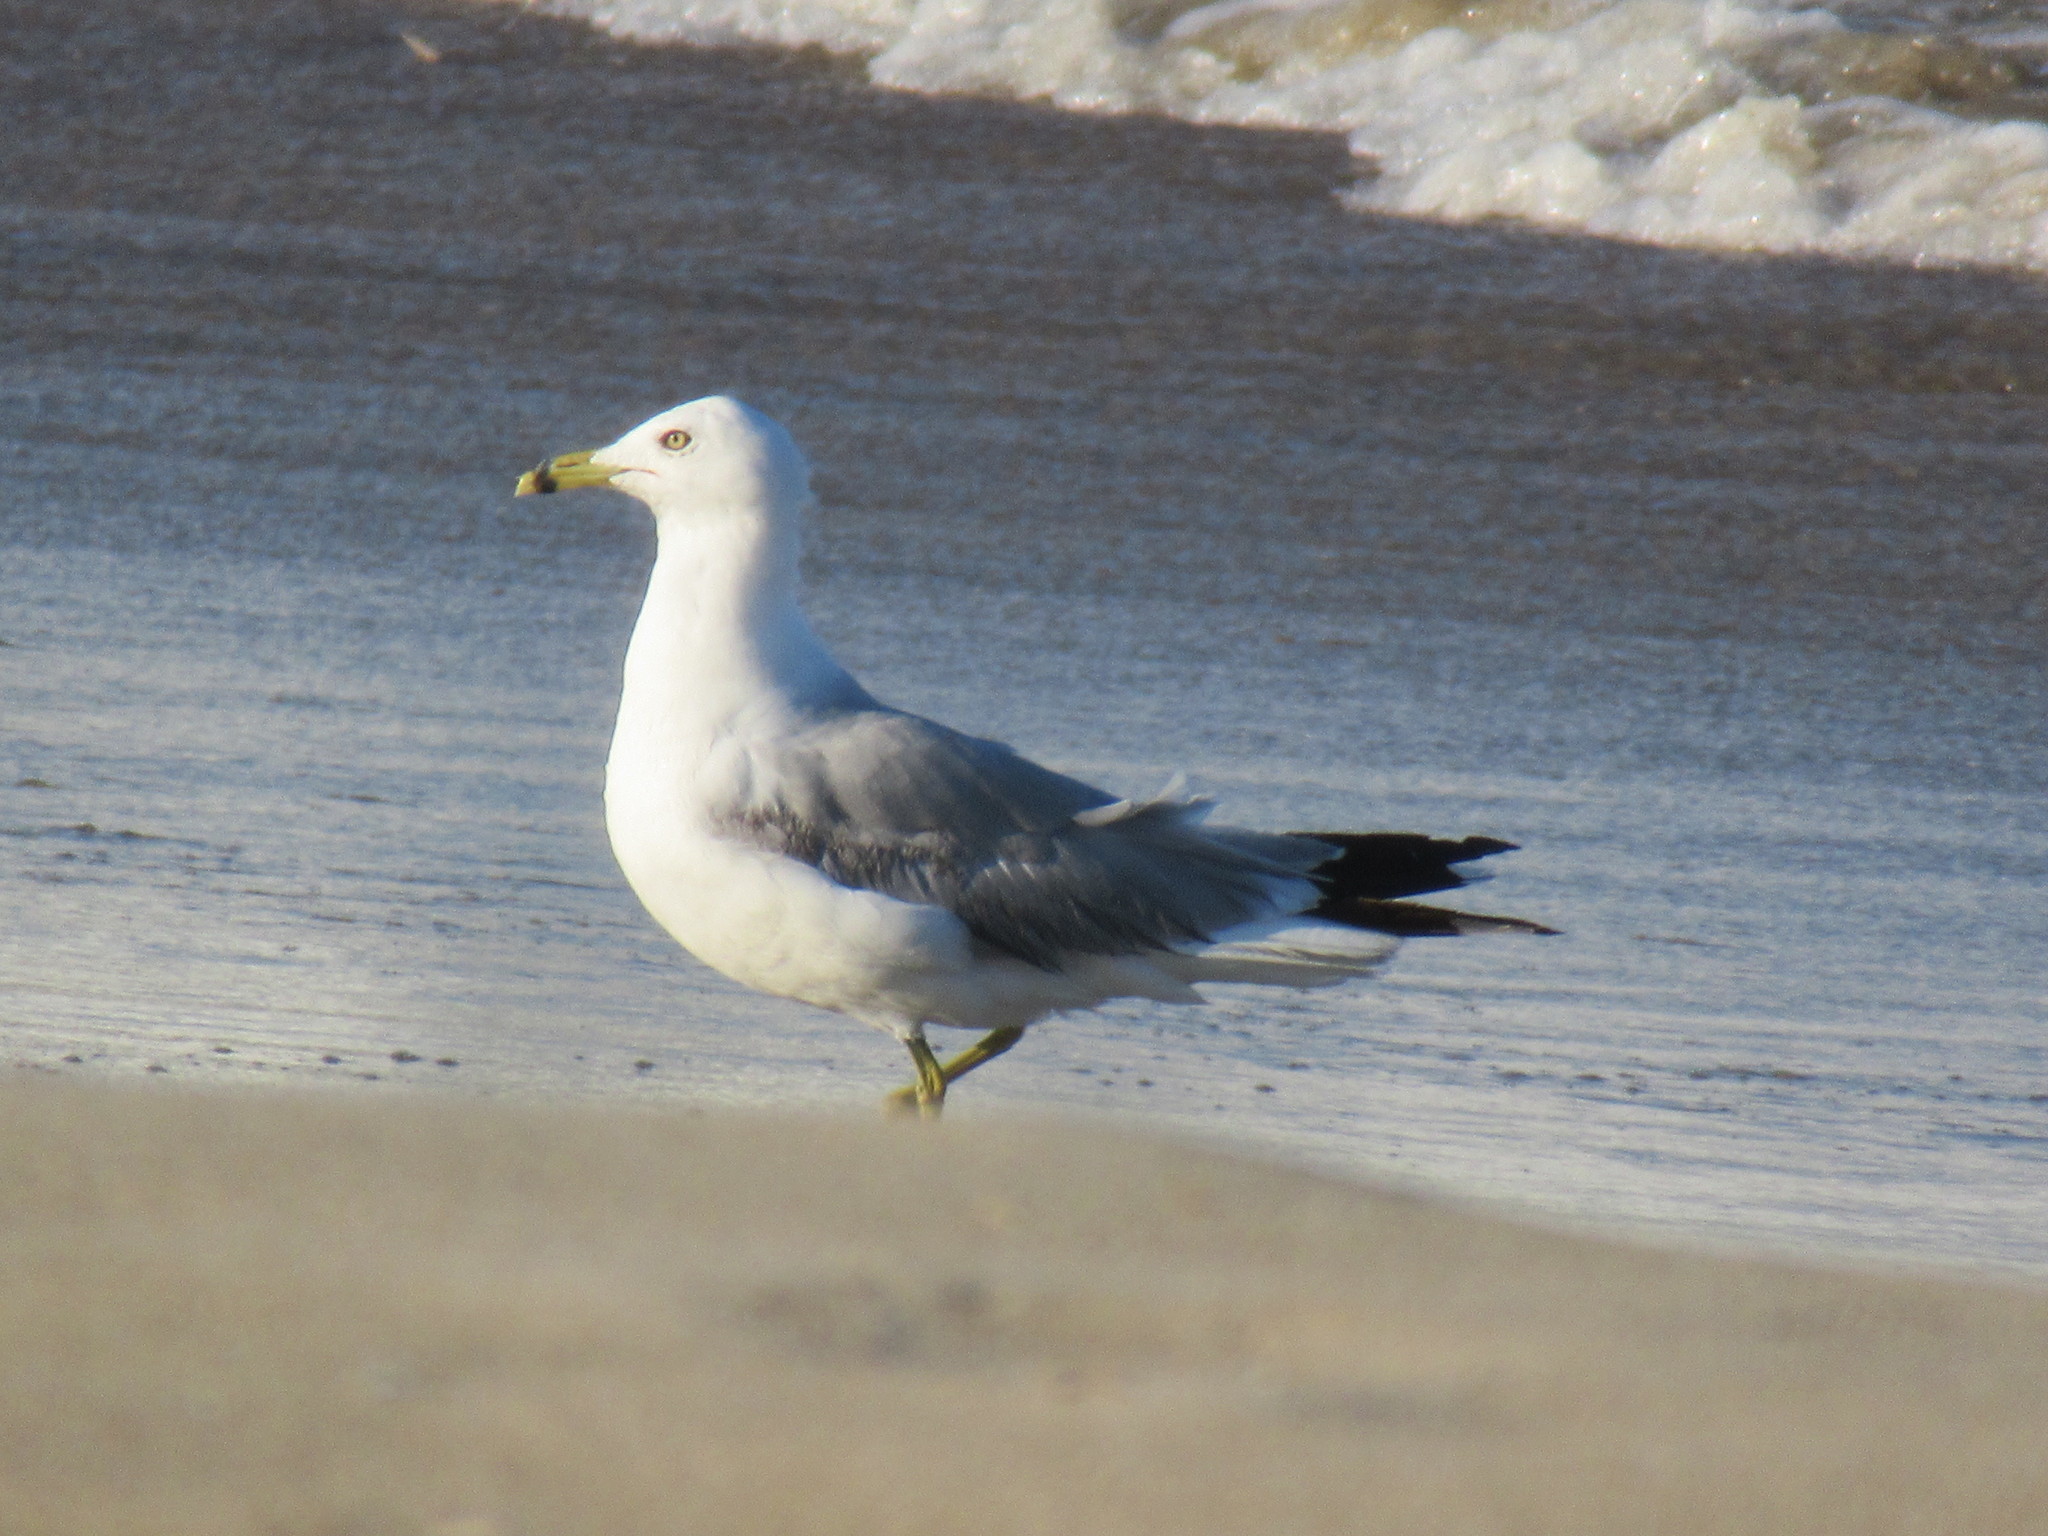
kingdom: Animalia
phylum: Chordata
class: Aves
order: Charadriiformes
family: Laridae
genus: Larus
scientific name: Larus delawarensis
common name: Ring-billed gull
